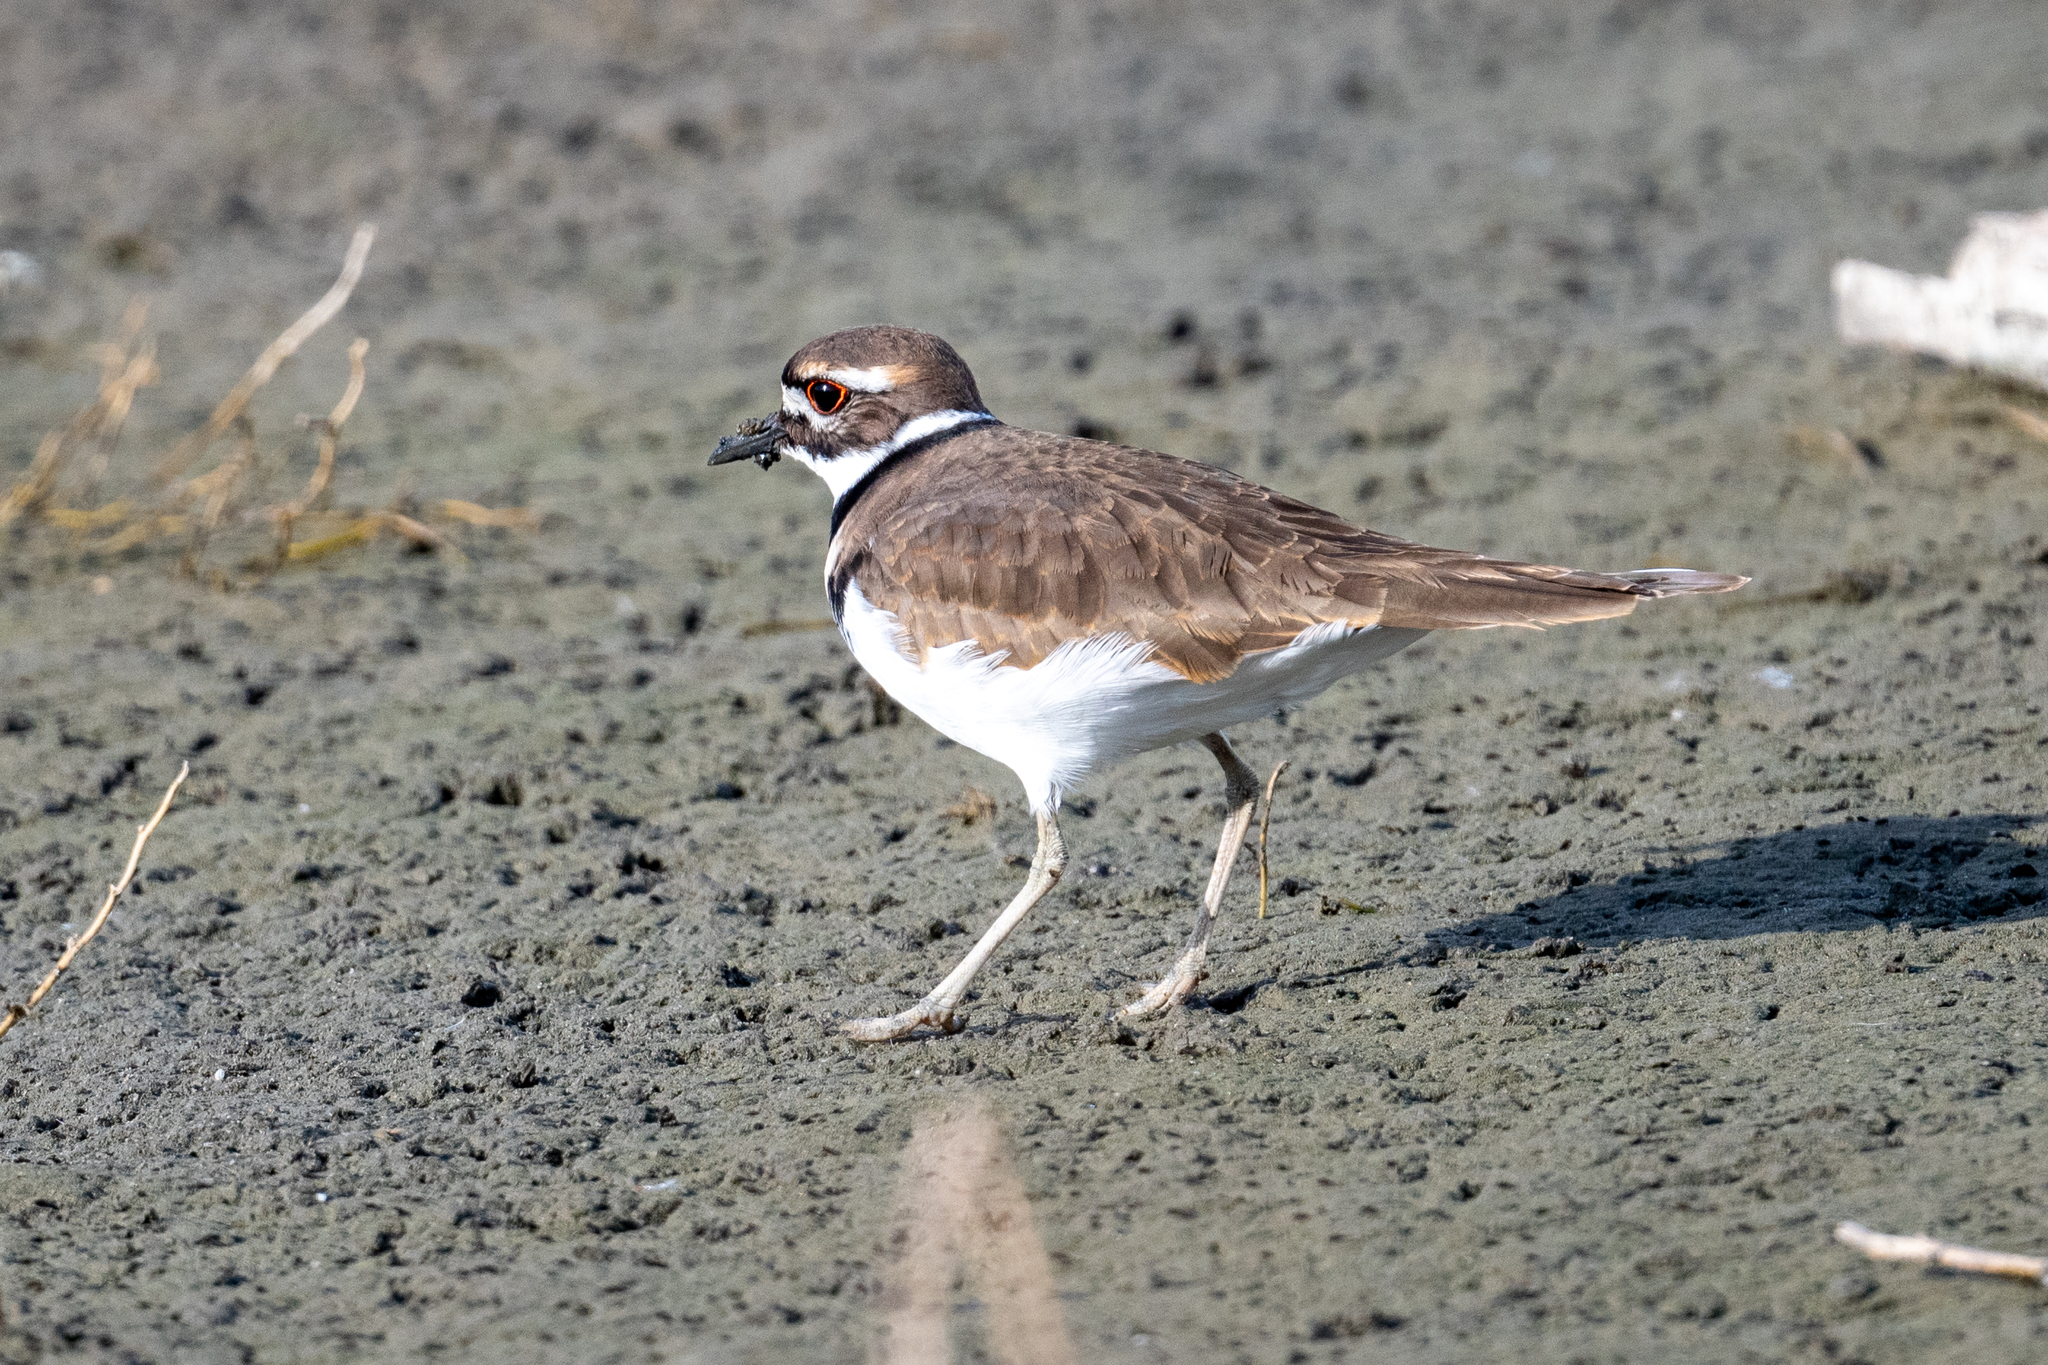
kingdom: Animalia
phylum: Chordata
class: Aves
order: Charadriiformes
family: Charadriidae
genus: Charadrius
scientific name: Charadrius vociferus
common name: Killdeer
